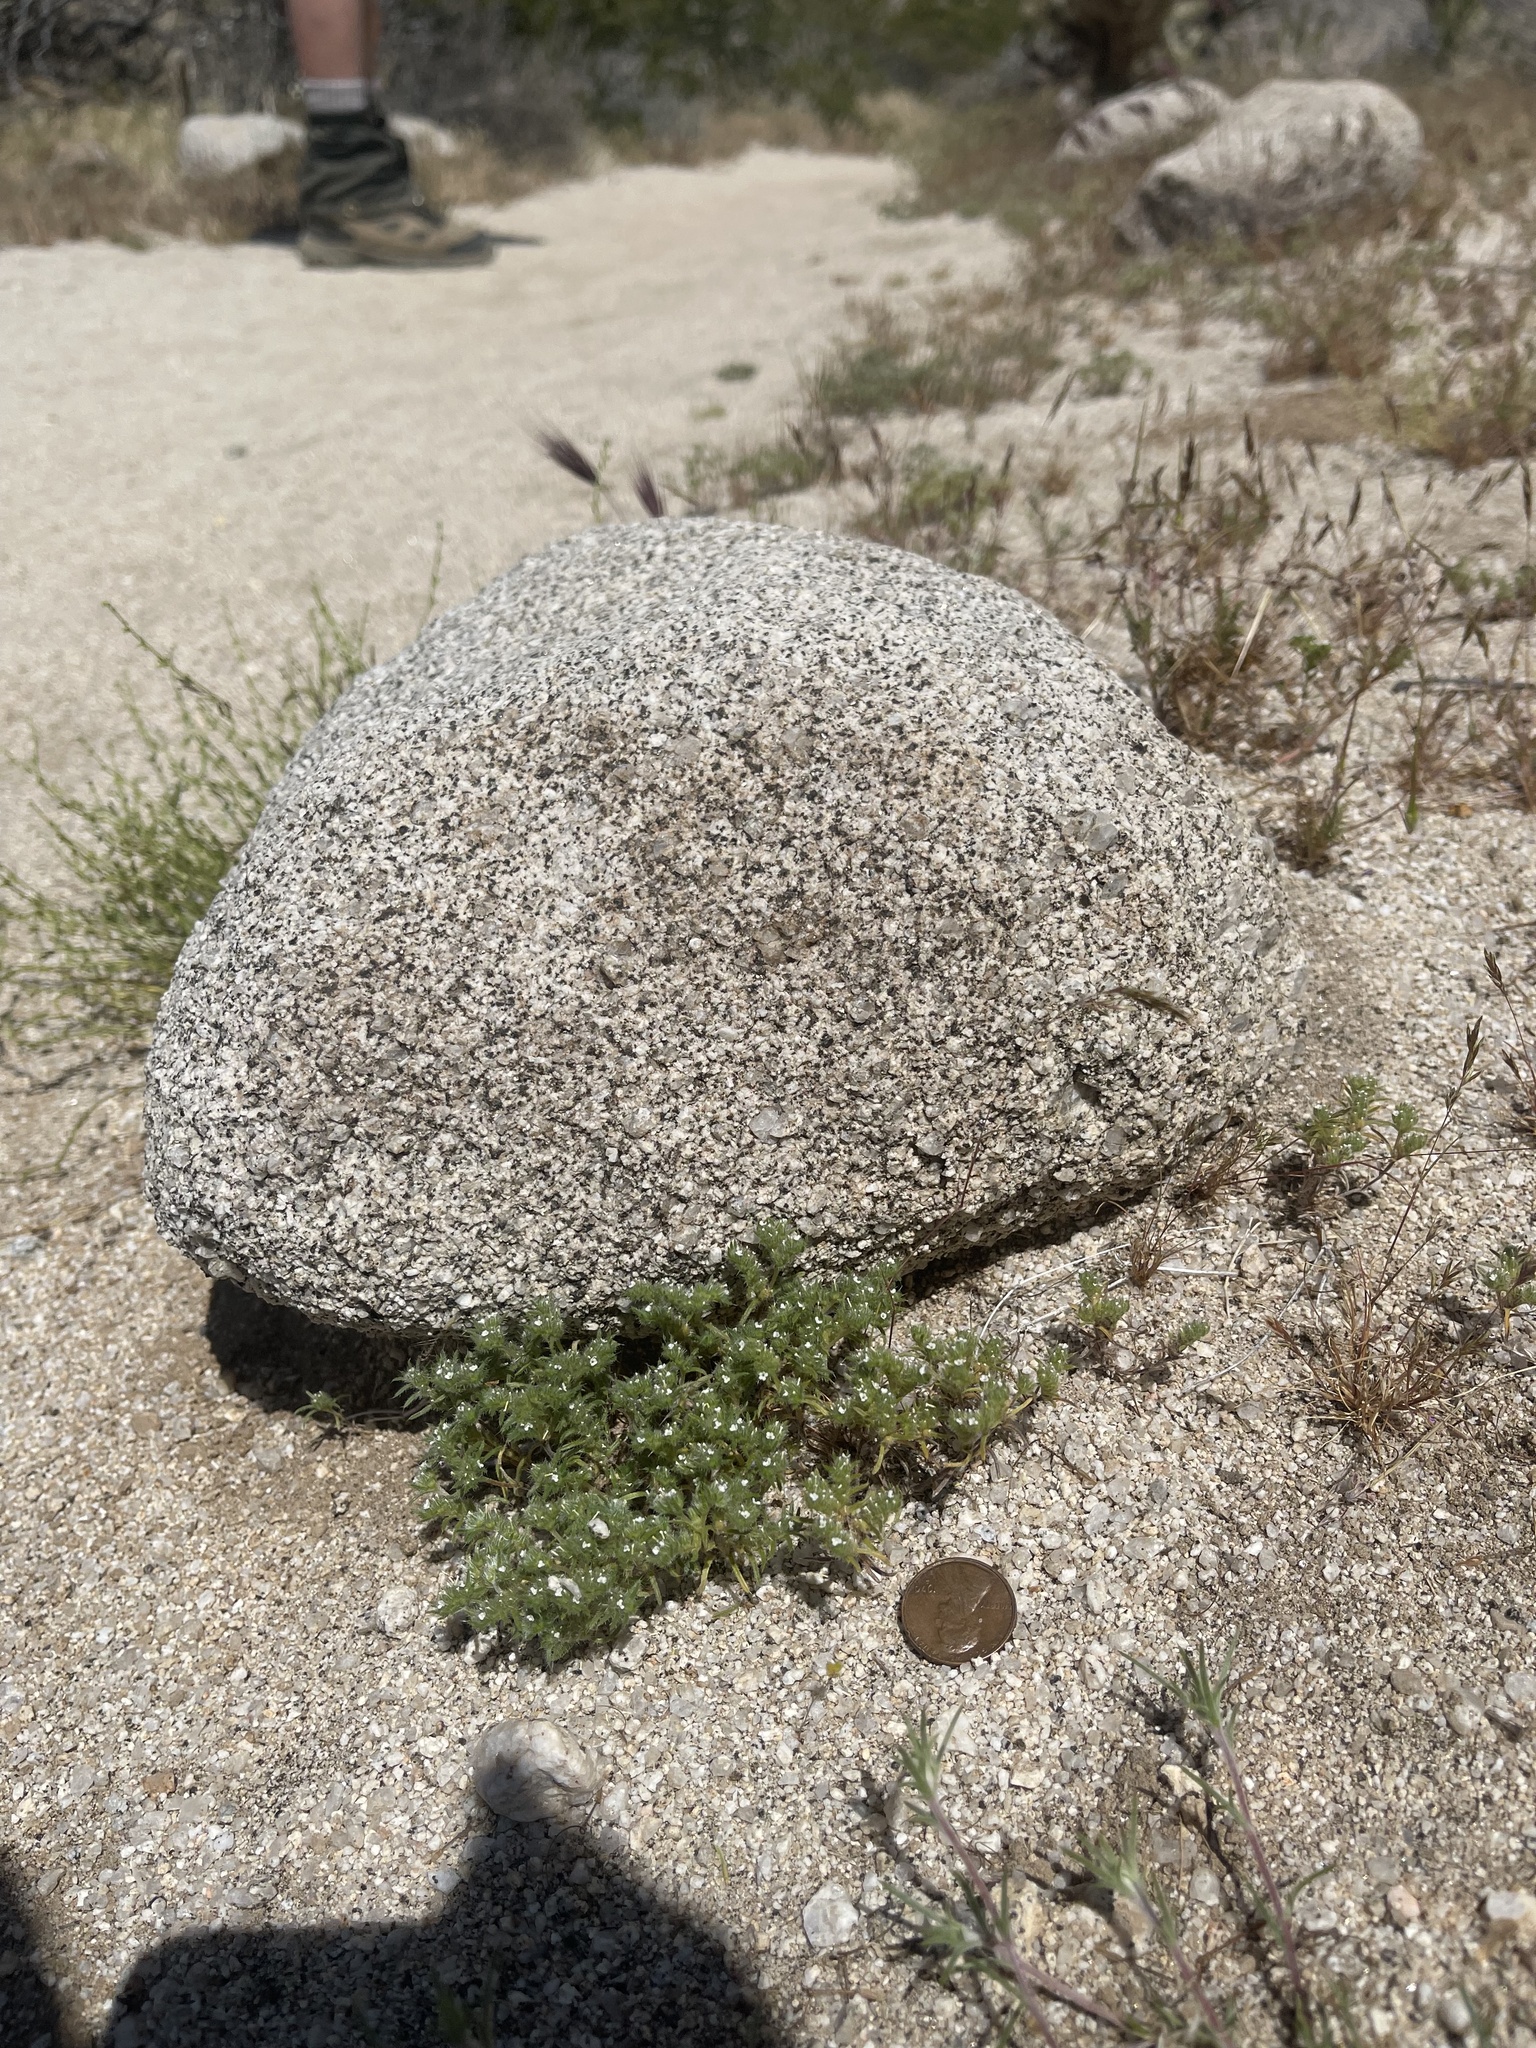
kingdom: Plantae
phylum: Tracheophyta
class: Magnoliopsida
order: Boraginales
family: Boraginaceae
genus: Greeneocharis
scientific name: Greeneocharis circumscissa
